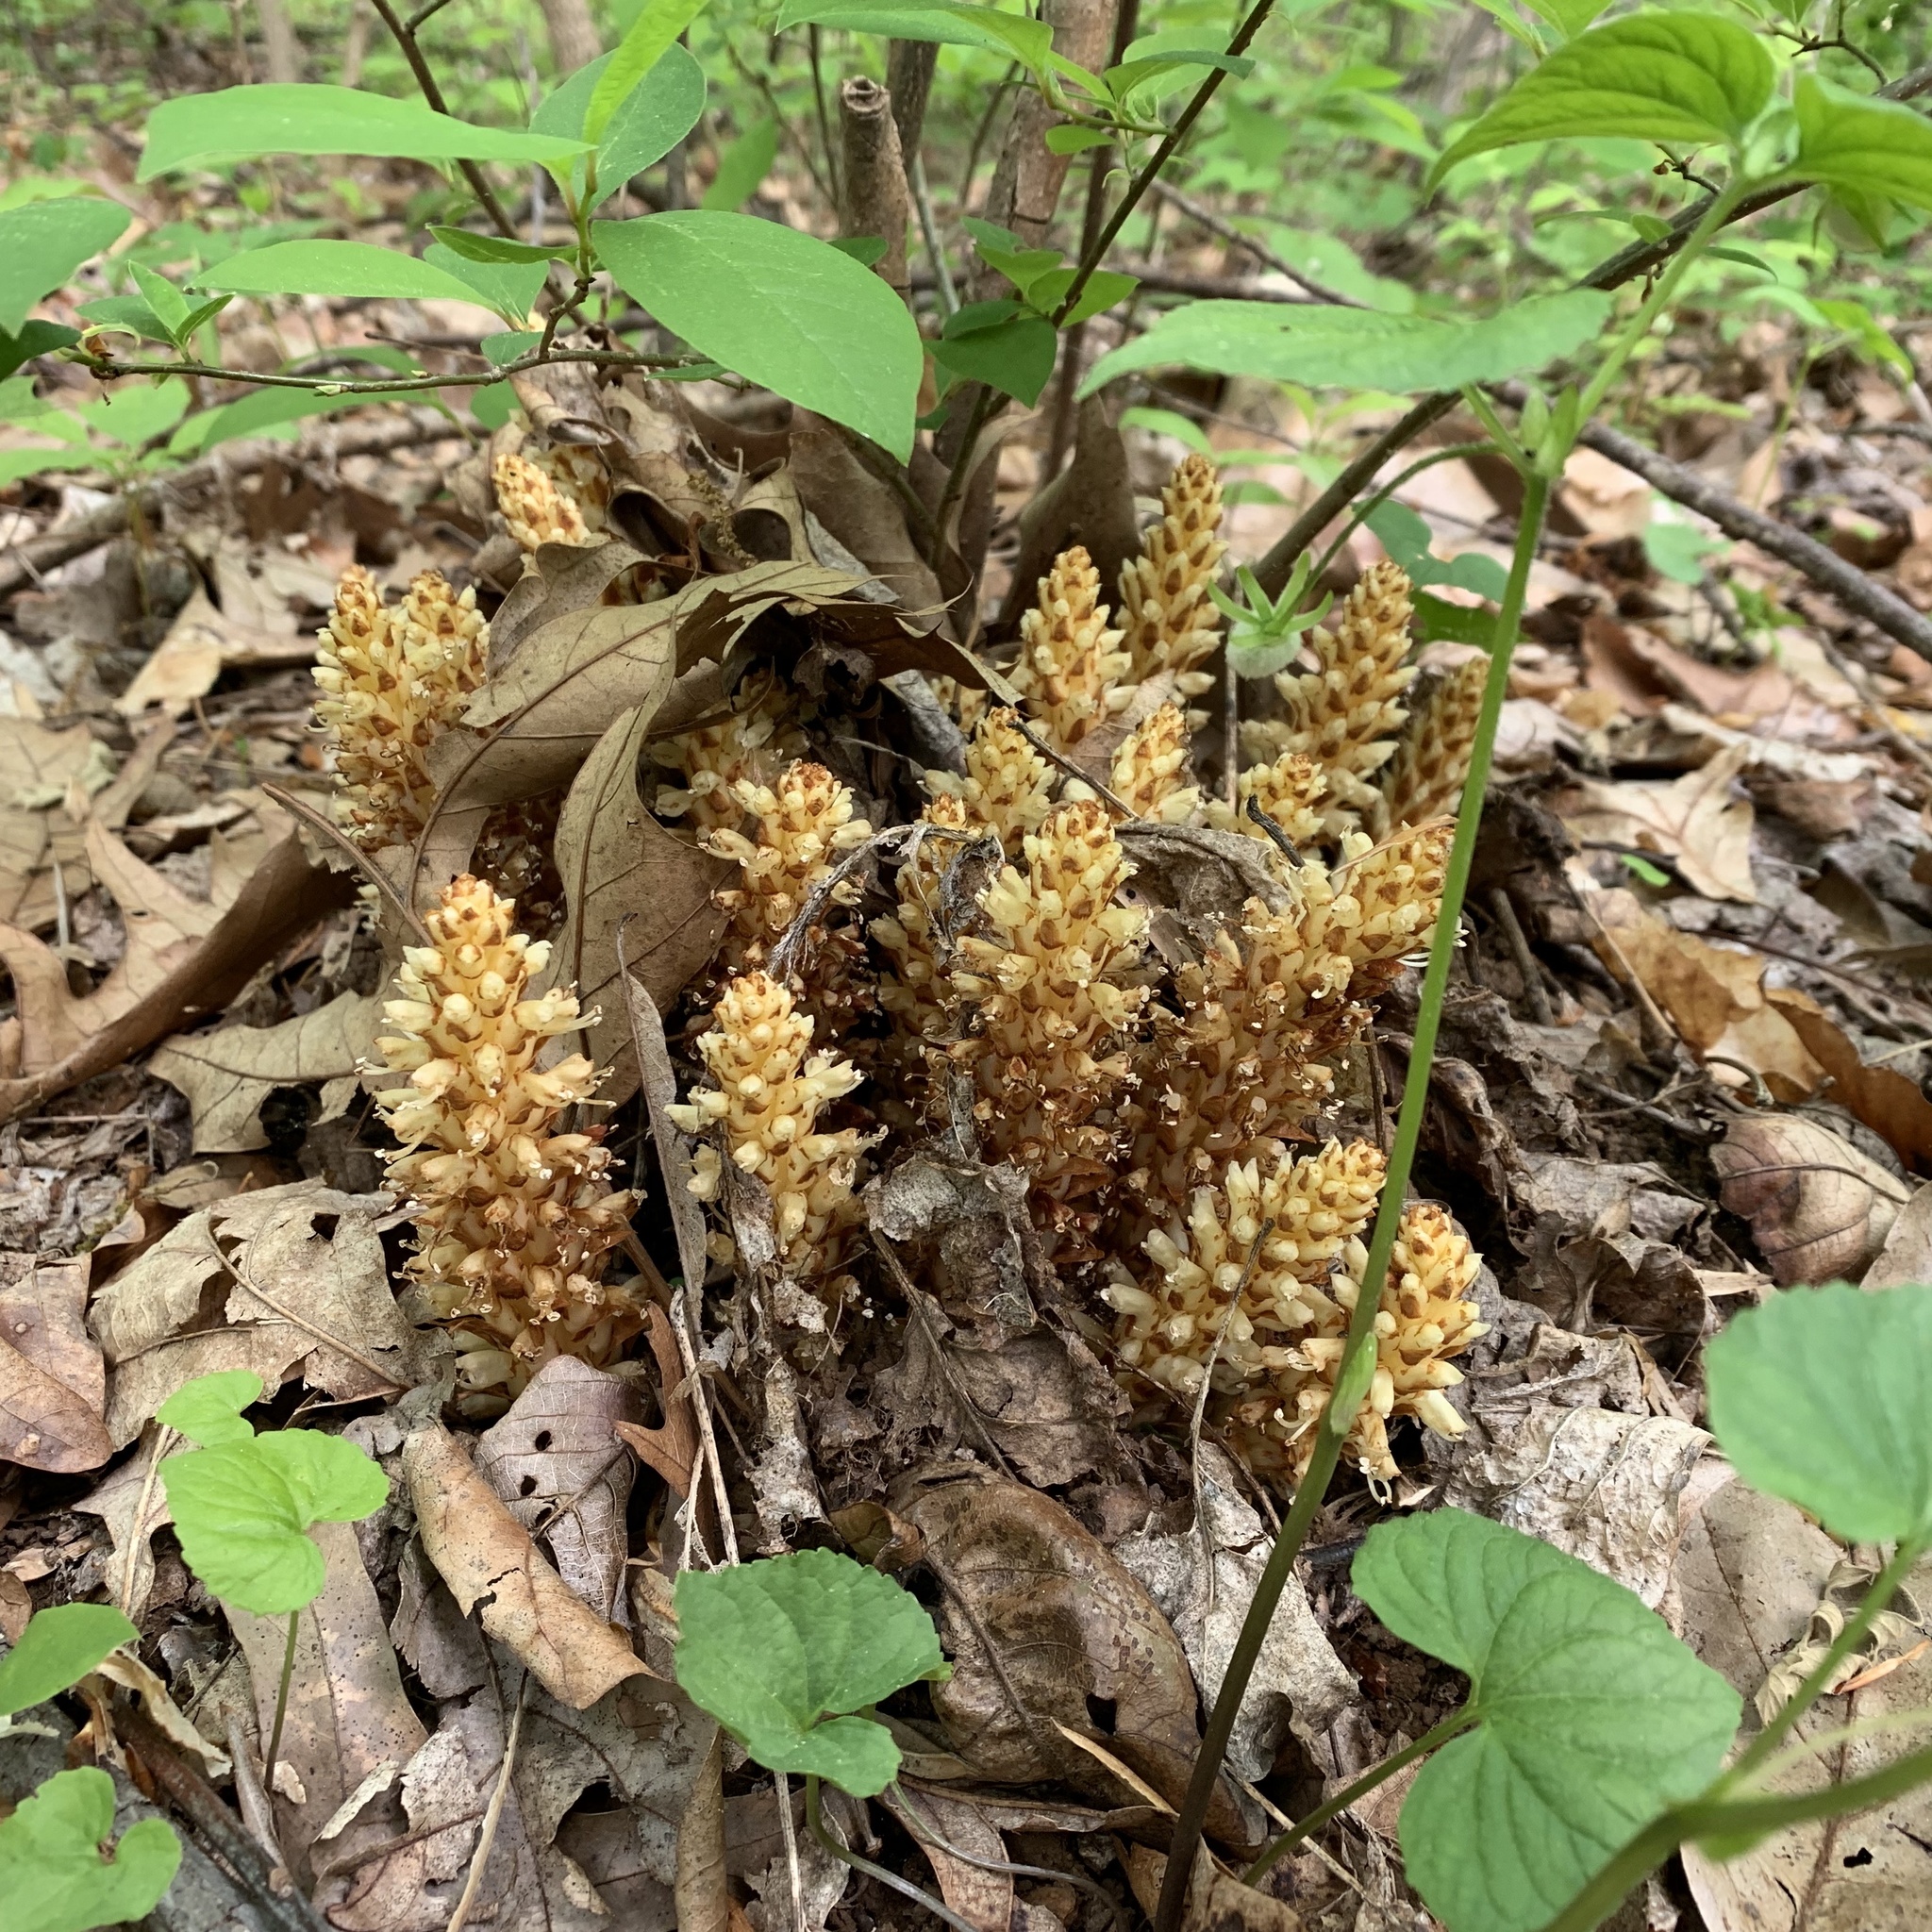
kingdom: Plantae
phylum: Tracheophyta
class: Magnoliopsida
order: Lamiales
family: Orobanchaceae
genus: Conopholis
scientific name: Conopholis americana
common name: American cancer-root
